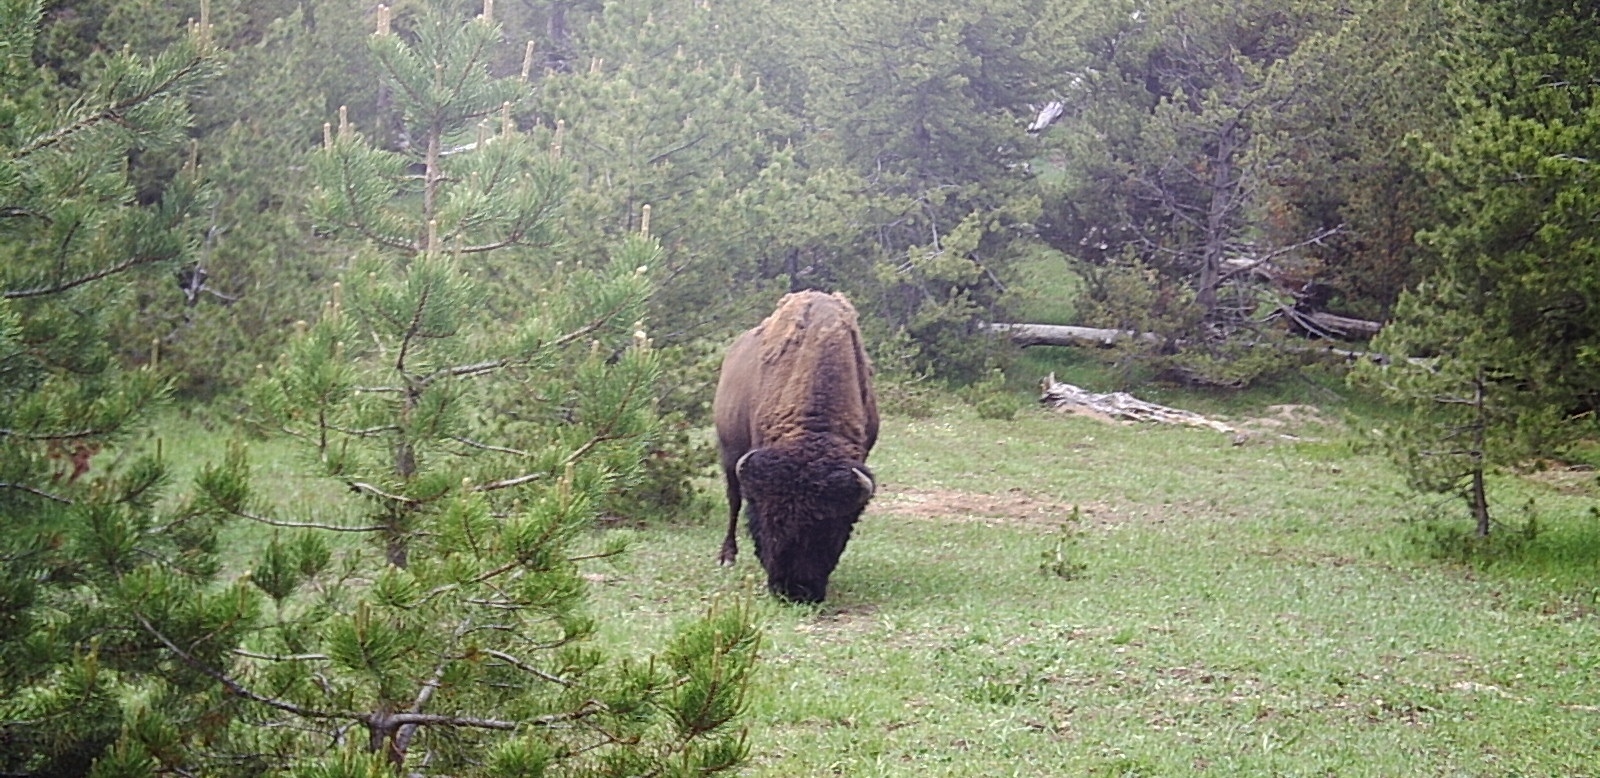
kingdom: Animalia
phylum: Chordata
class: Mammalia
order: Artiodactyla
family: Bovidae
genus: Bison
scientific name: Bison bison
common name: American bison
